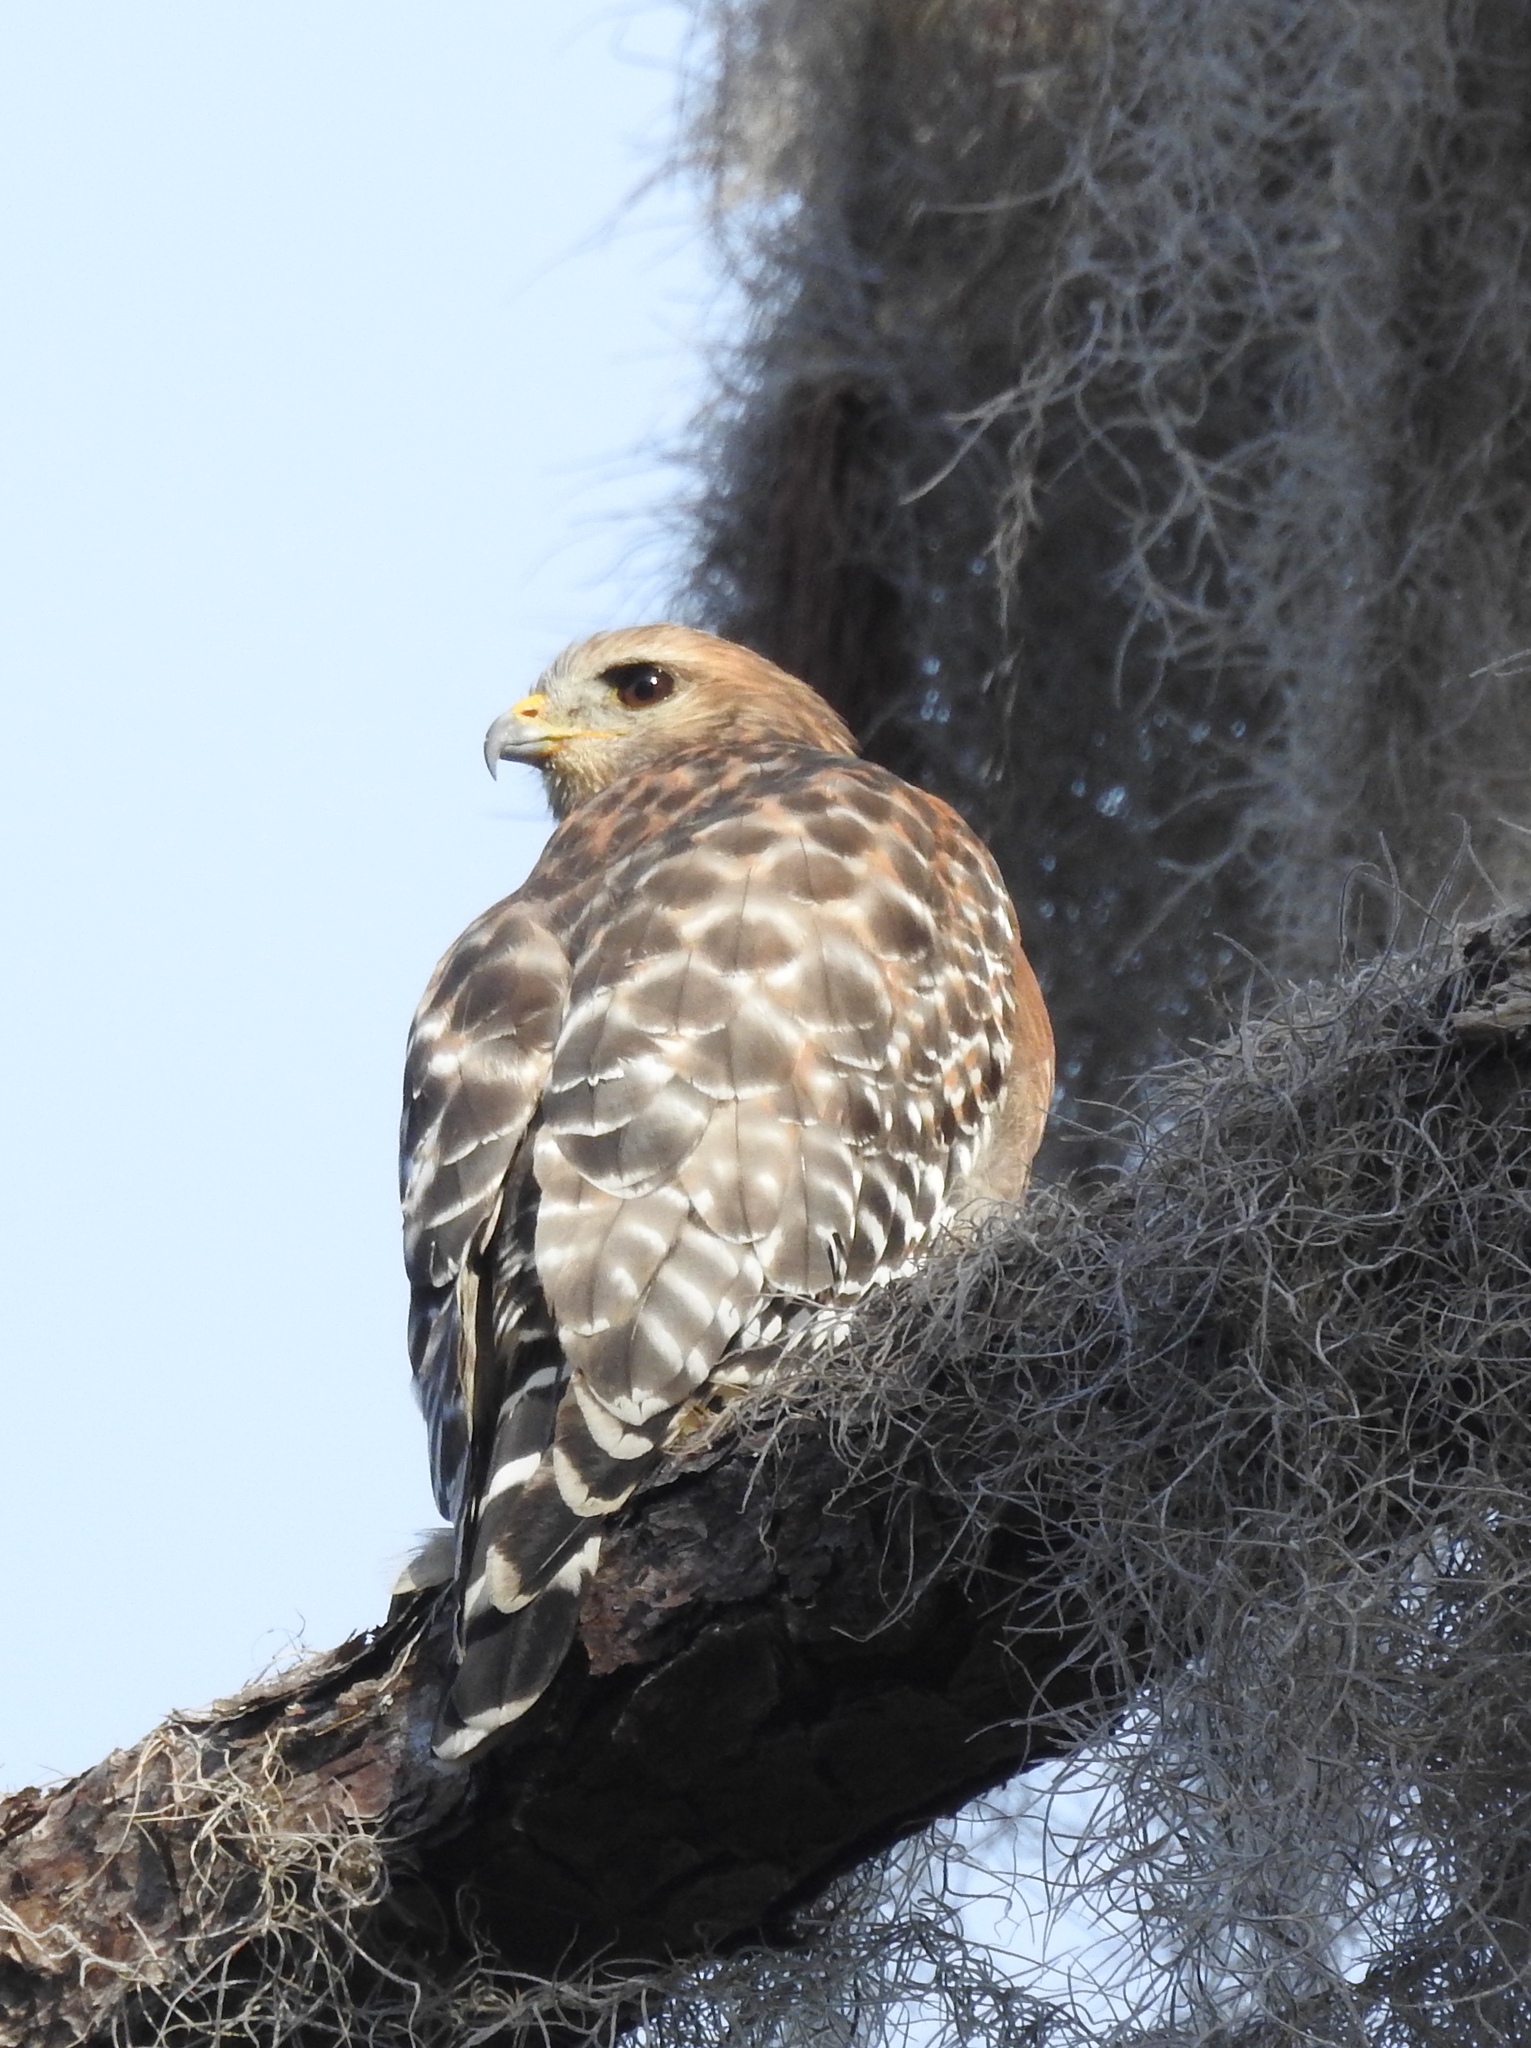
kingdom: Animalia
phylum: Chordata
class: Aves
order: Accipitriformes
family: Accipitridae
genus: Buteo
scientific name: Buteo lineatus
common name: Red-shouldered hawk
